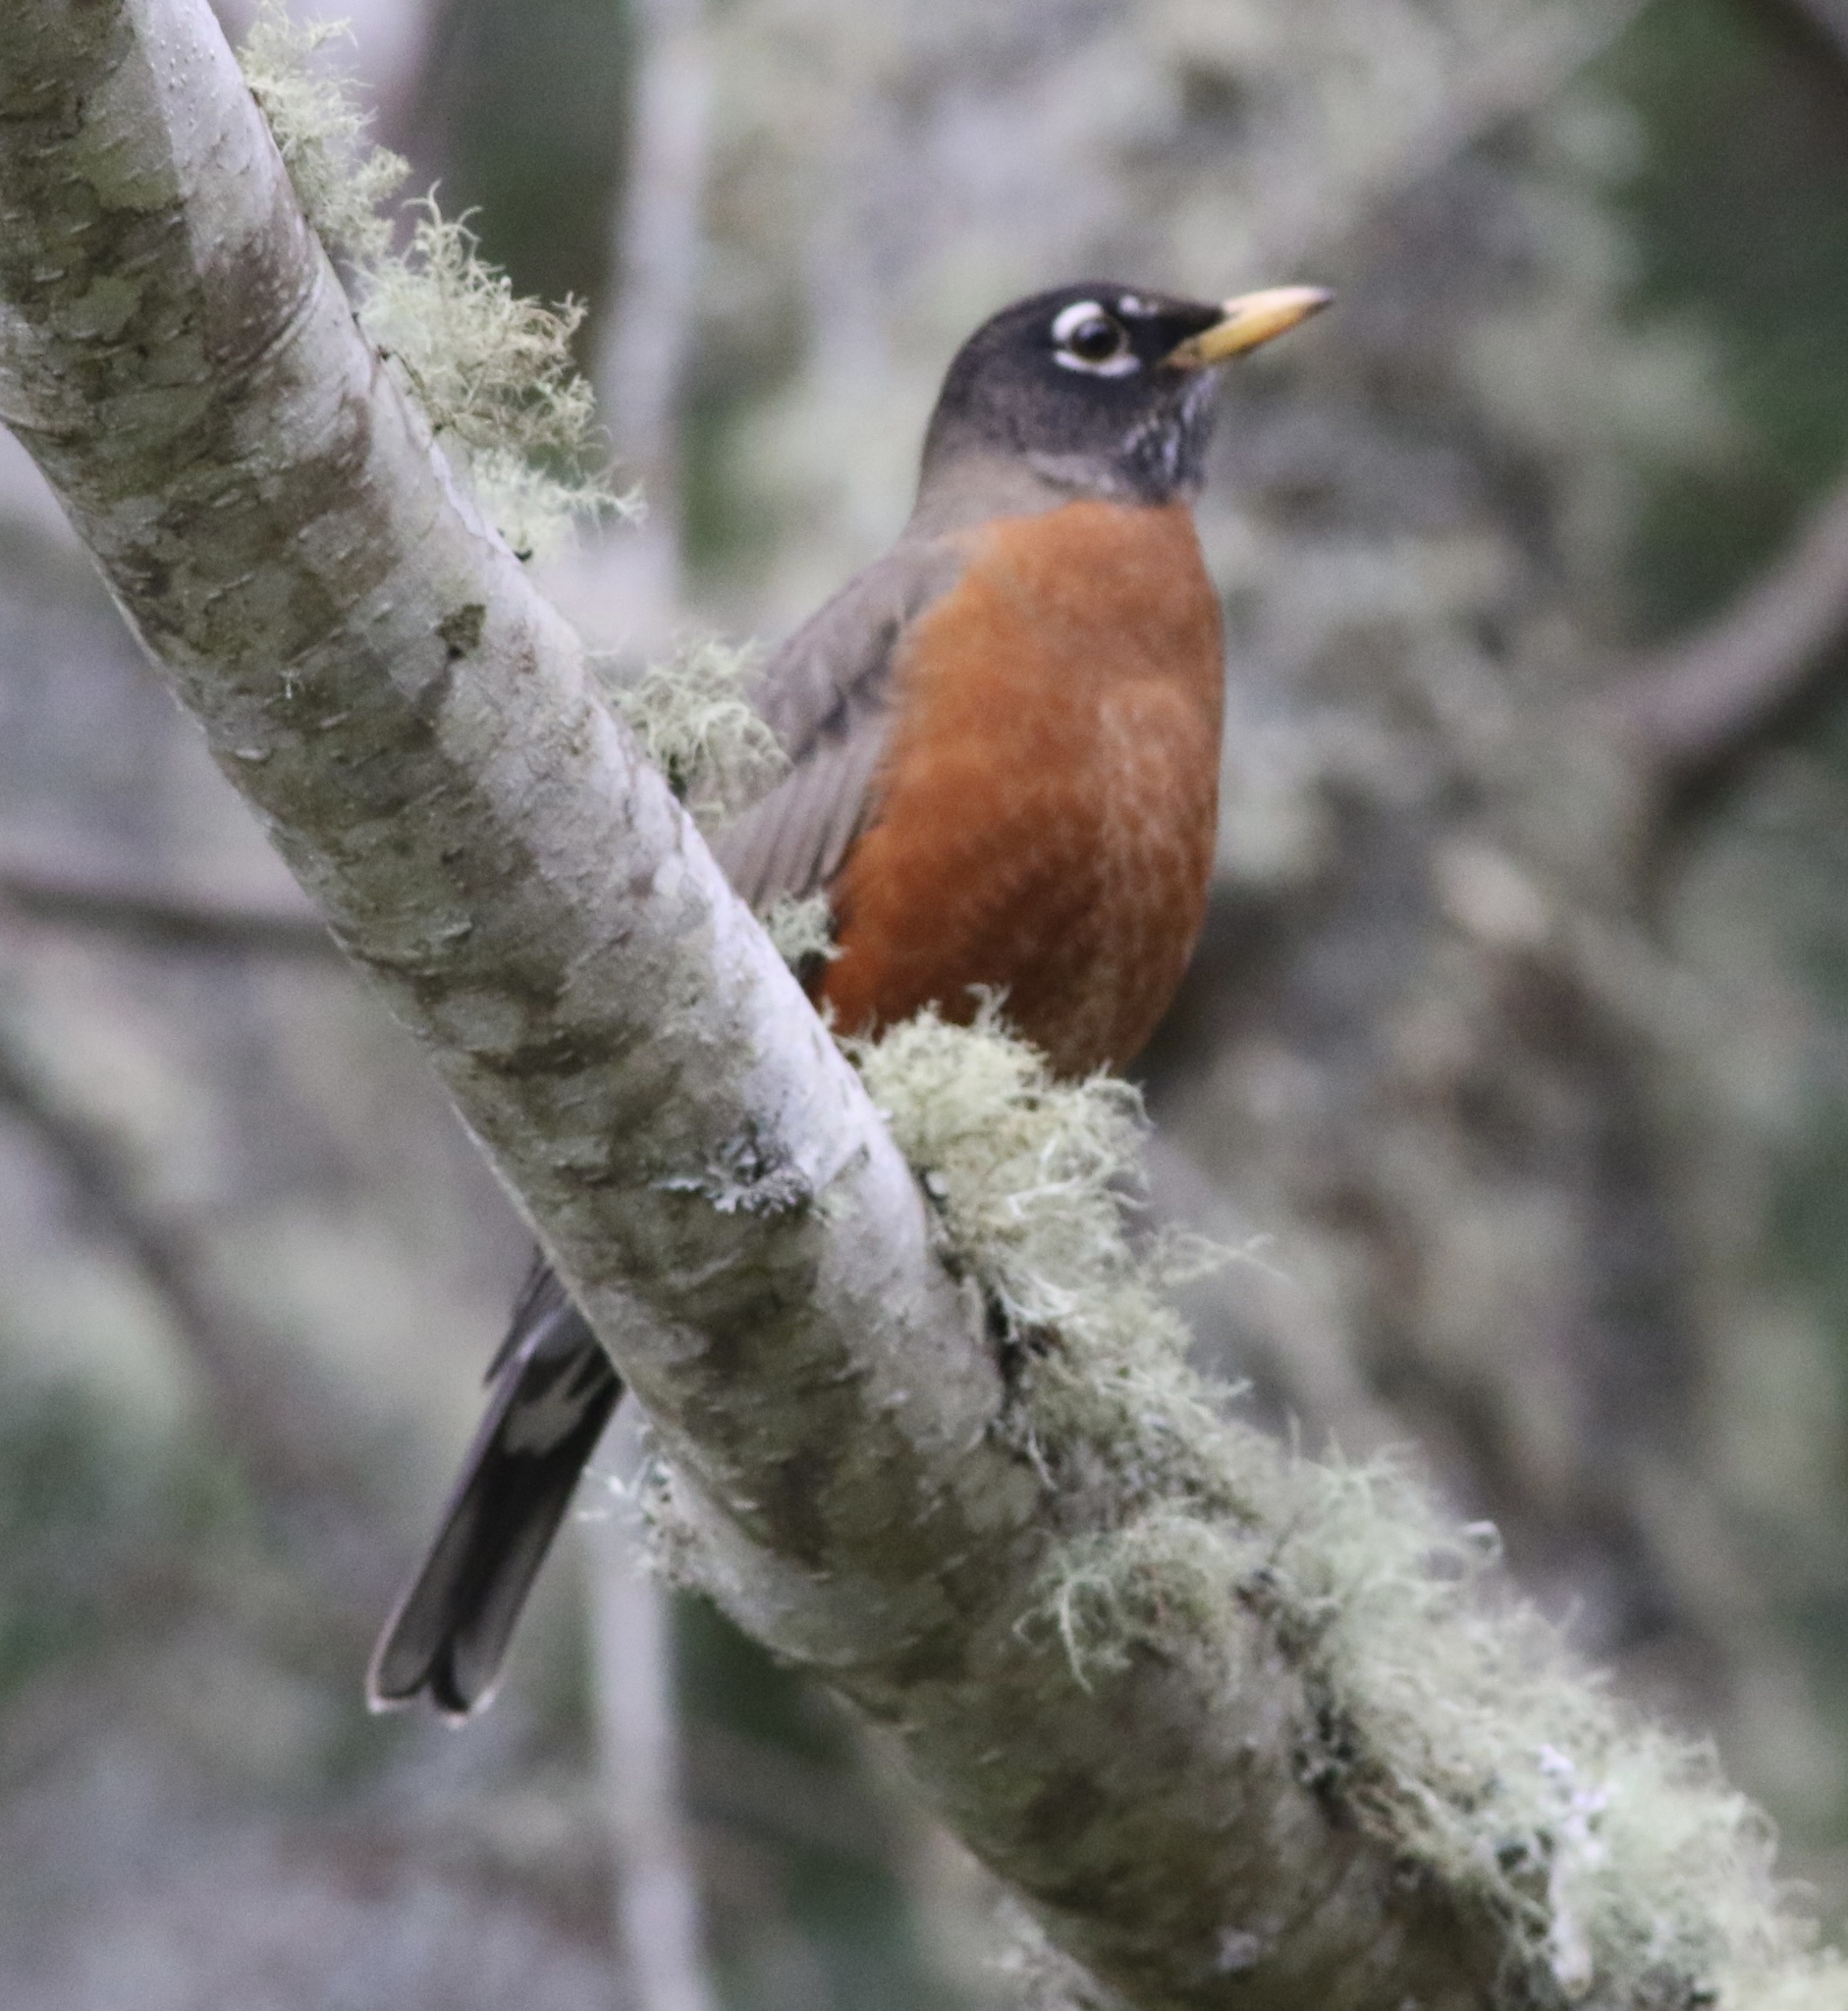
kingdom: Animalia
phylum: Chordata
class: Aves
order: Passeriformes
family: Turdidae
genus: Turdus
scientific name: Turdus migratorius
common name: American robin
